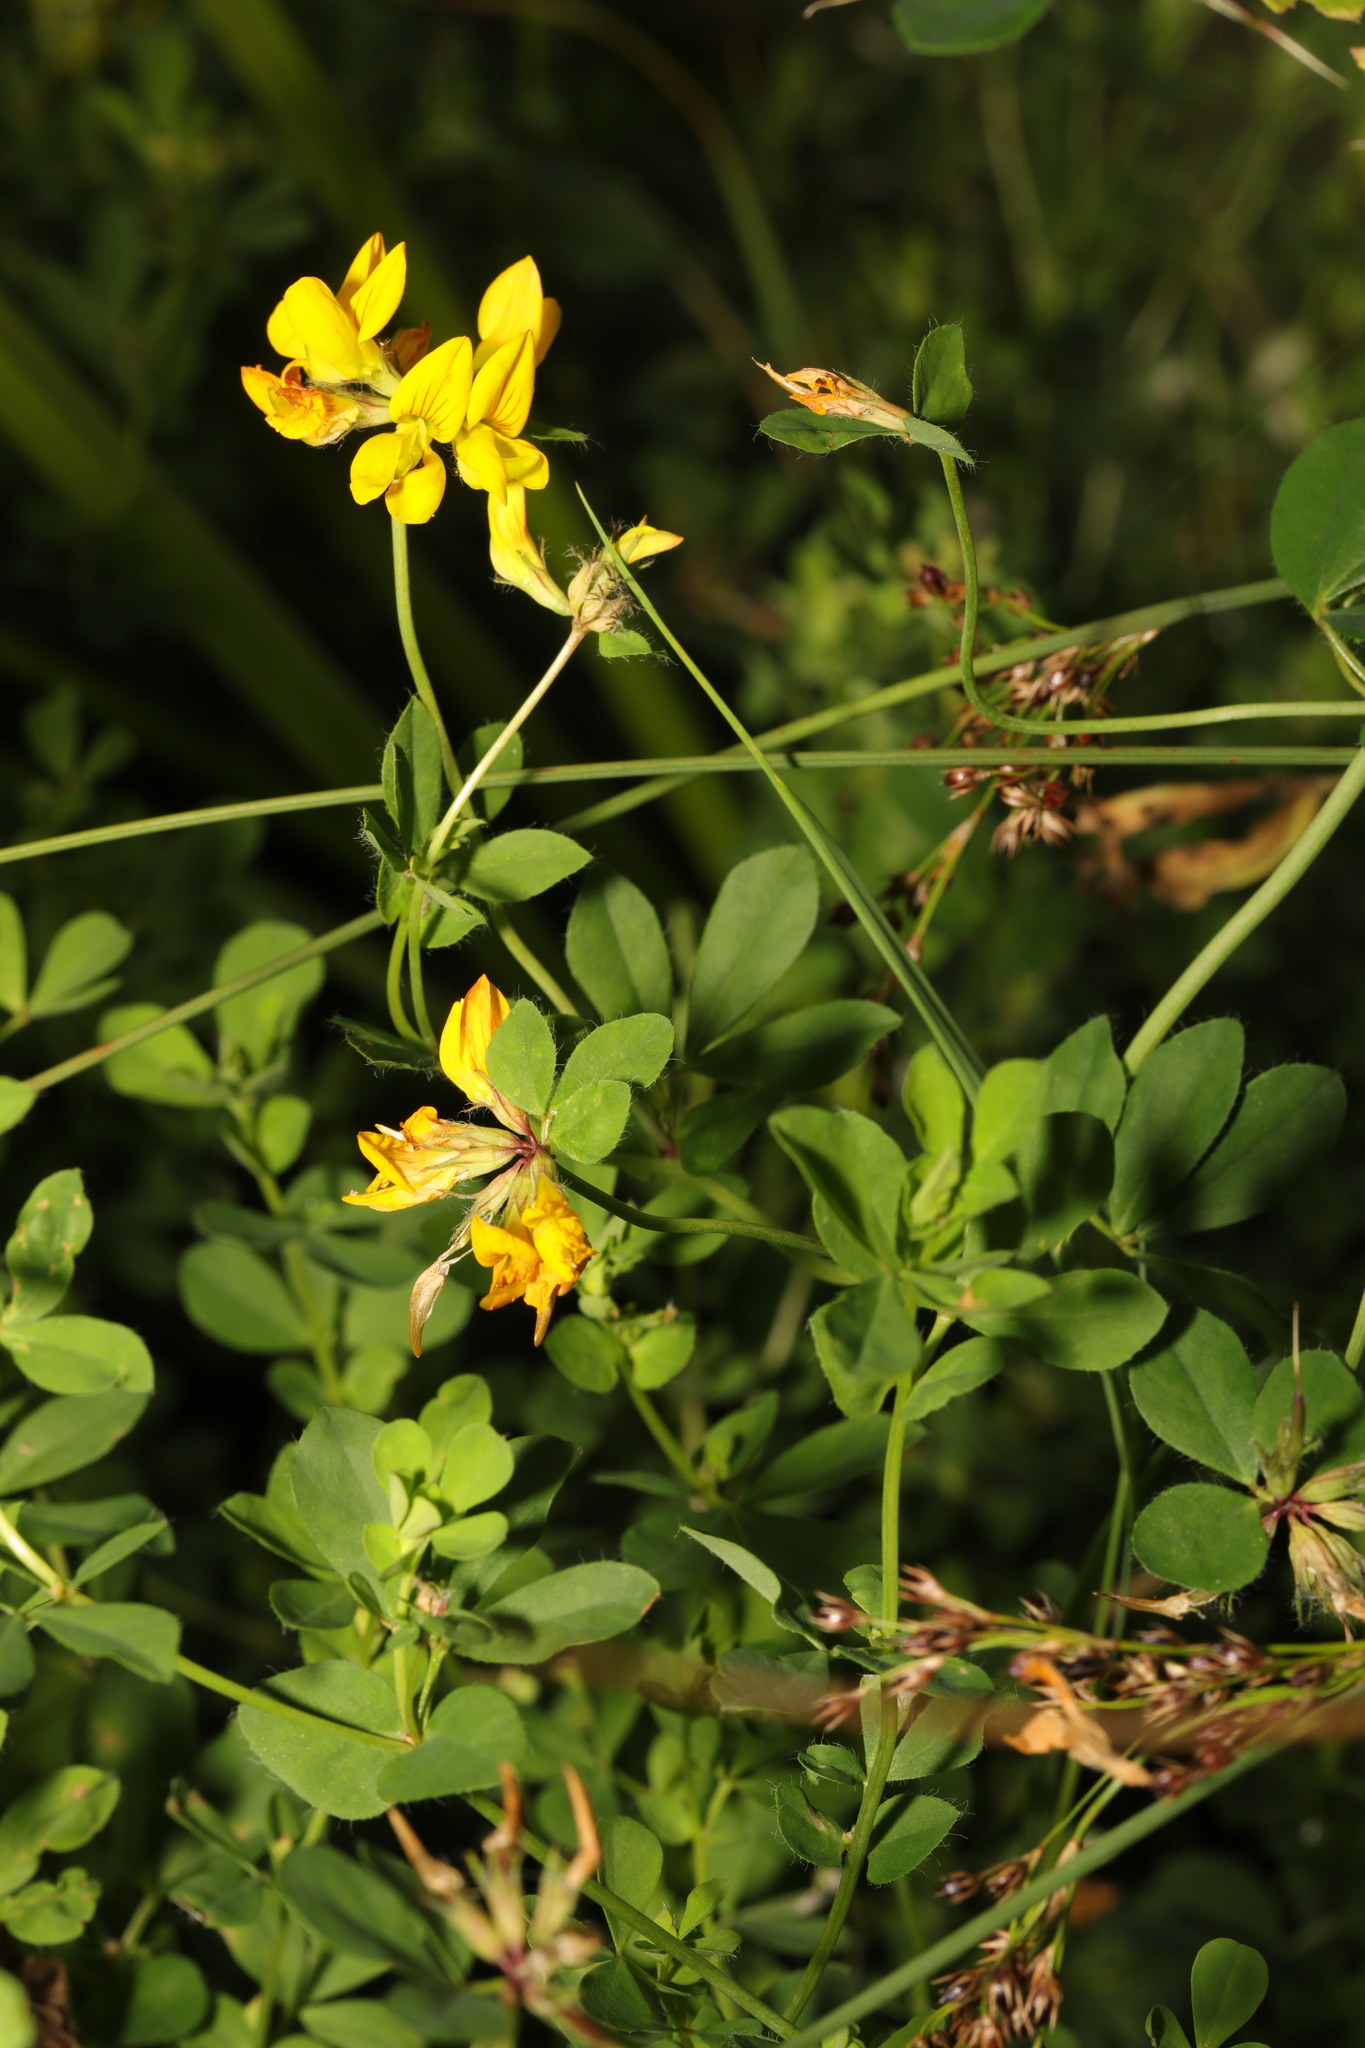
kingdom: Plantae
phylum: Tracheophyta
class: Magnoliopsida
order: Fabales
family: Fabaceae
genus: Lotus
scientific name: Lotus corniculatus
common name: Common bird's-foot-trefoil
